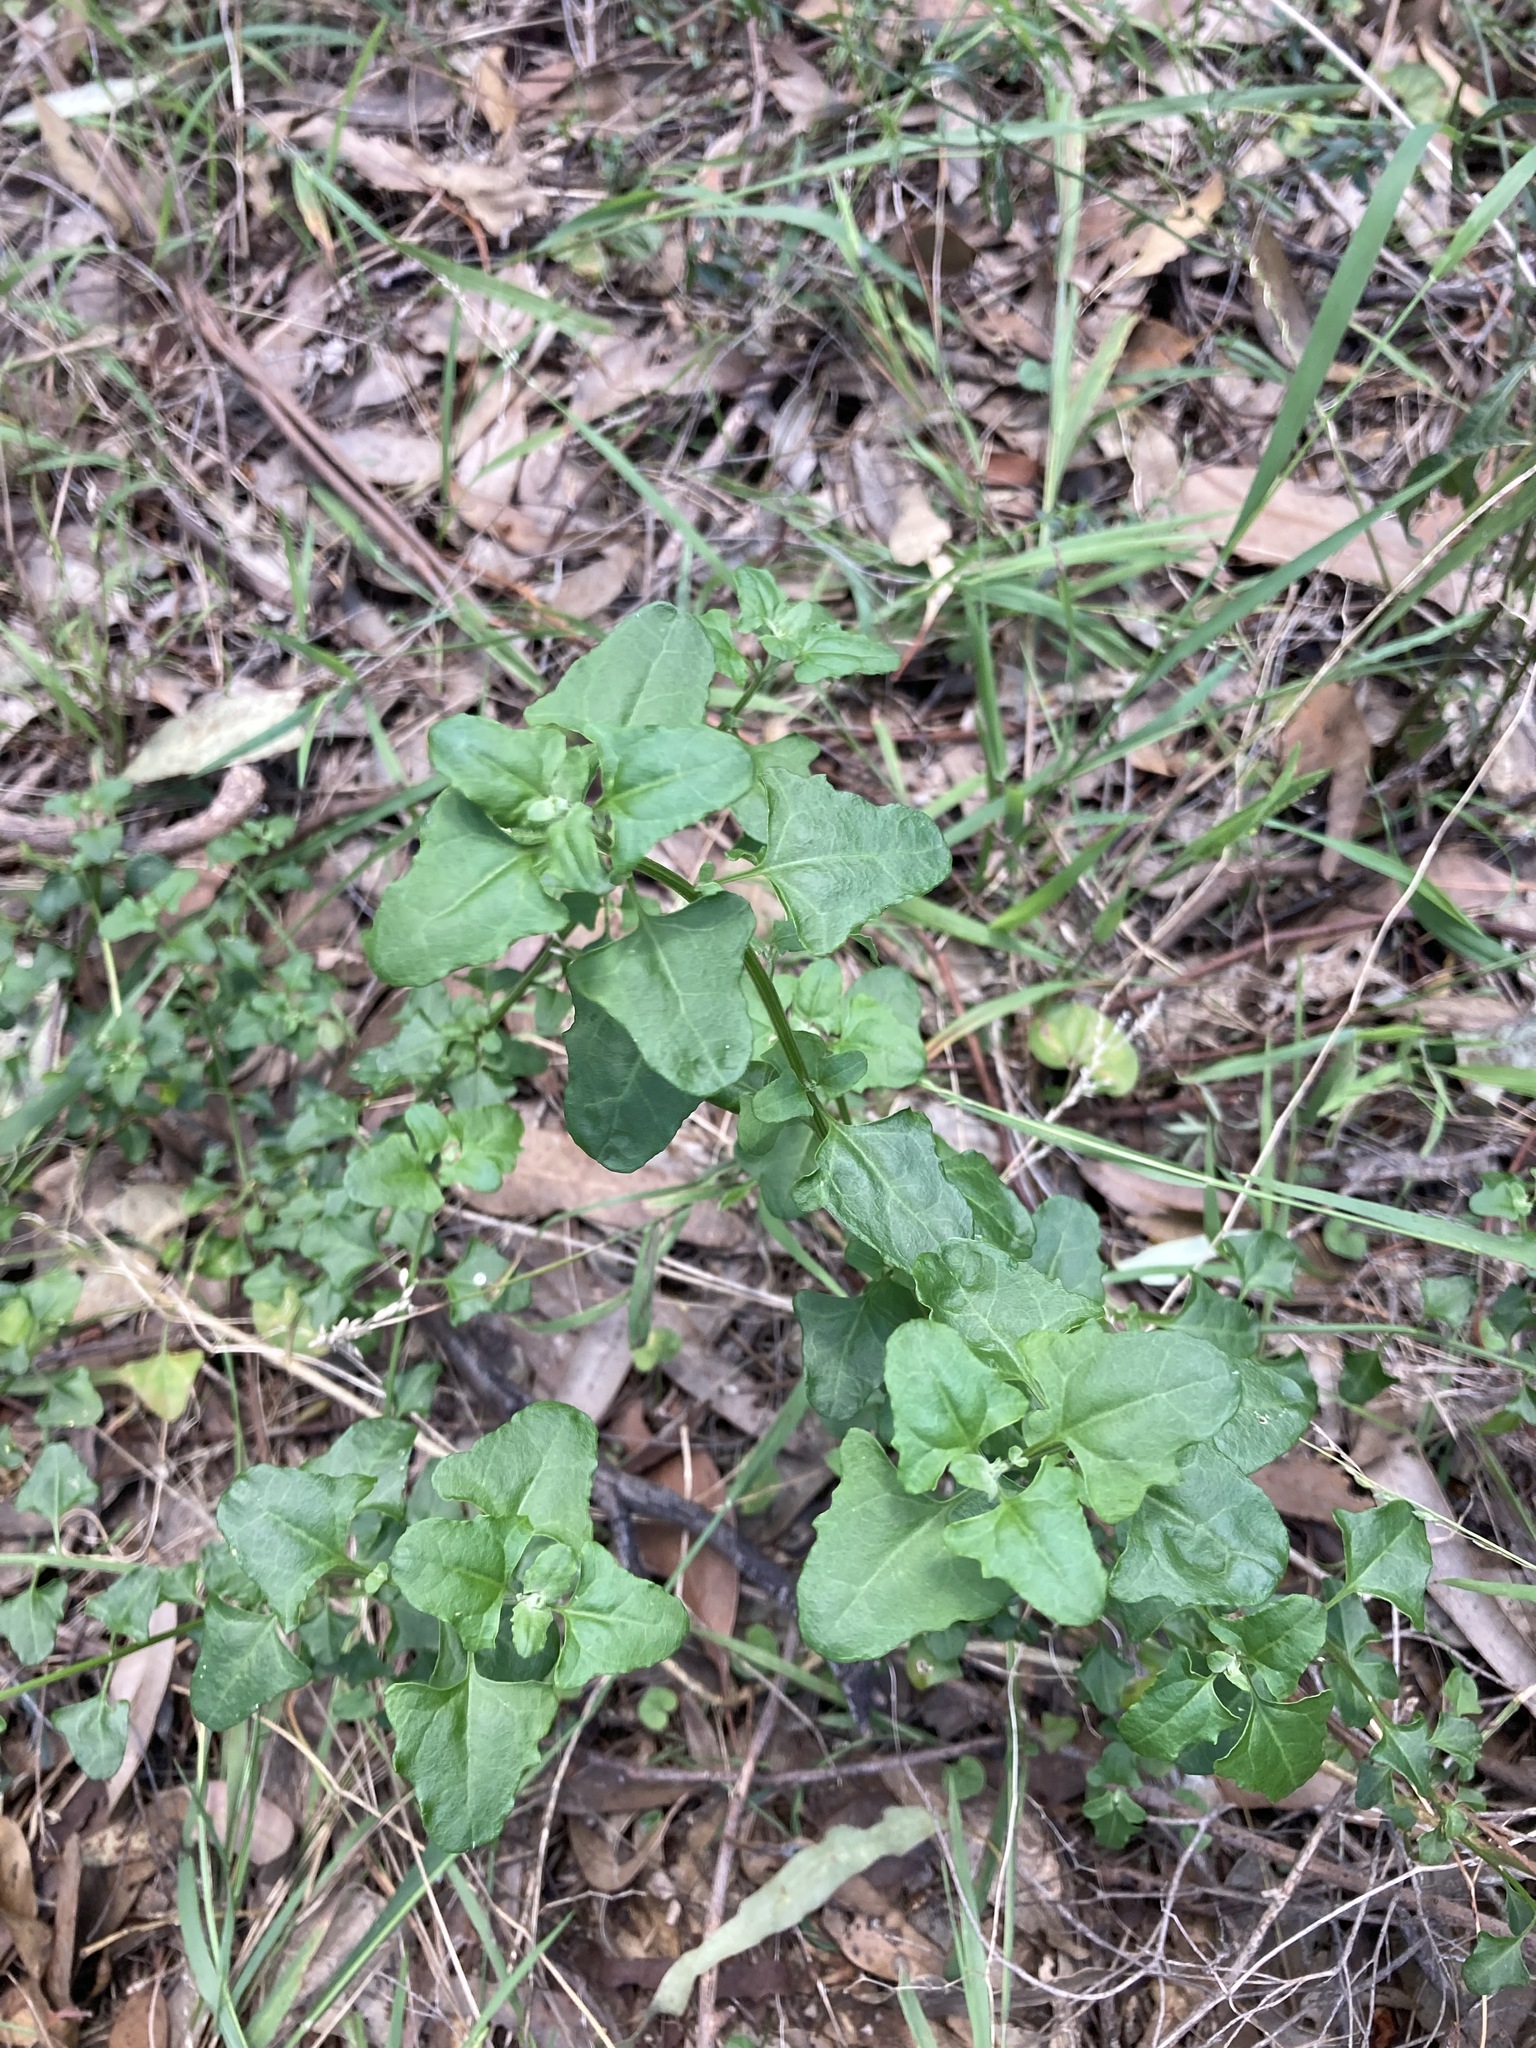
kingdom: Plantae
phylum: Tracheophyta
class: Magnoliopsida
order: Caryophyllales
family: Amaranthaceae
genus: Chenopodium
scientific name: Chenopodium robertianum
